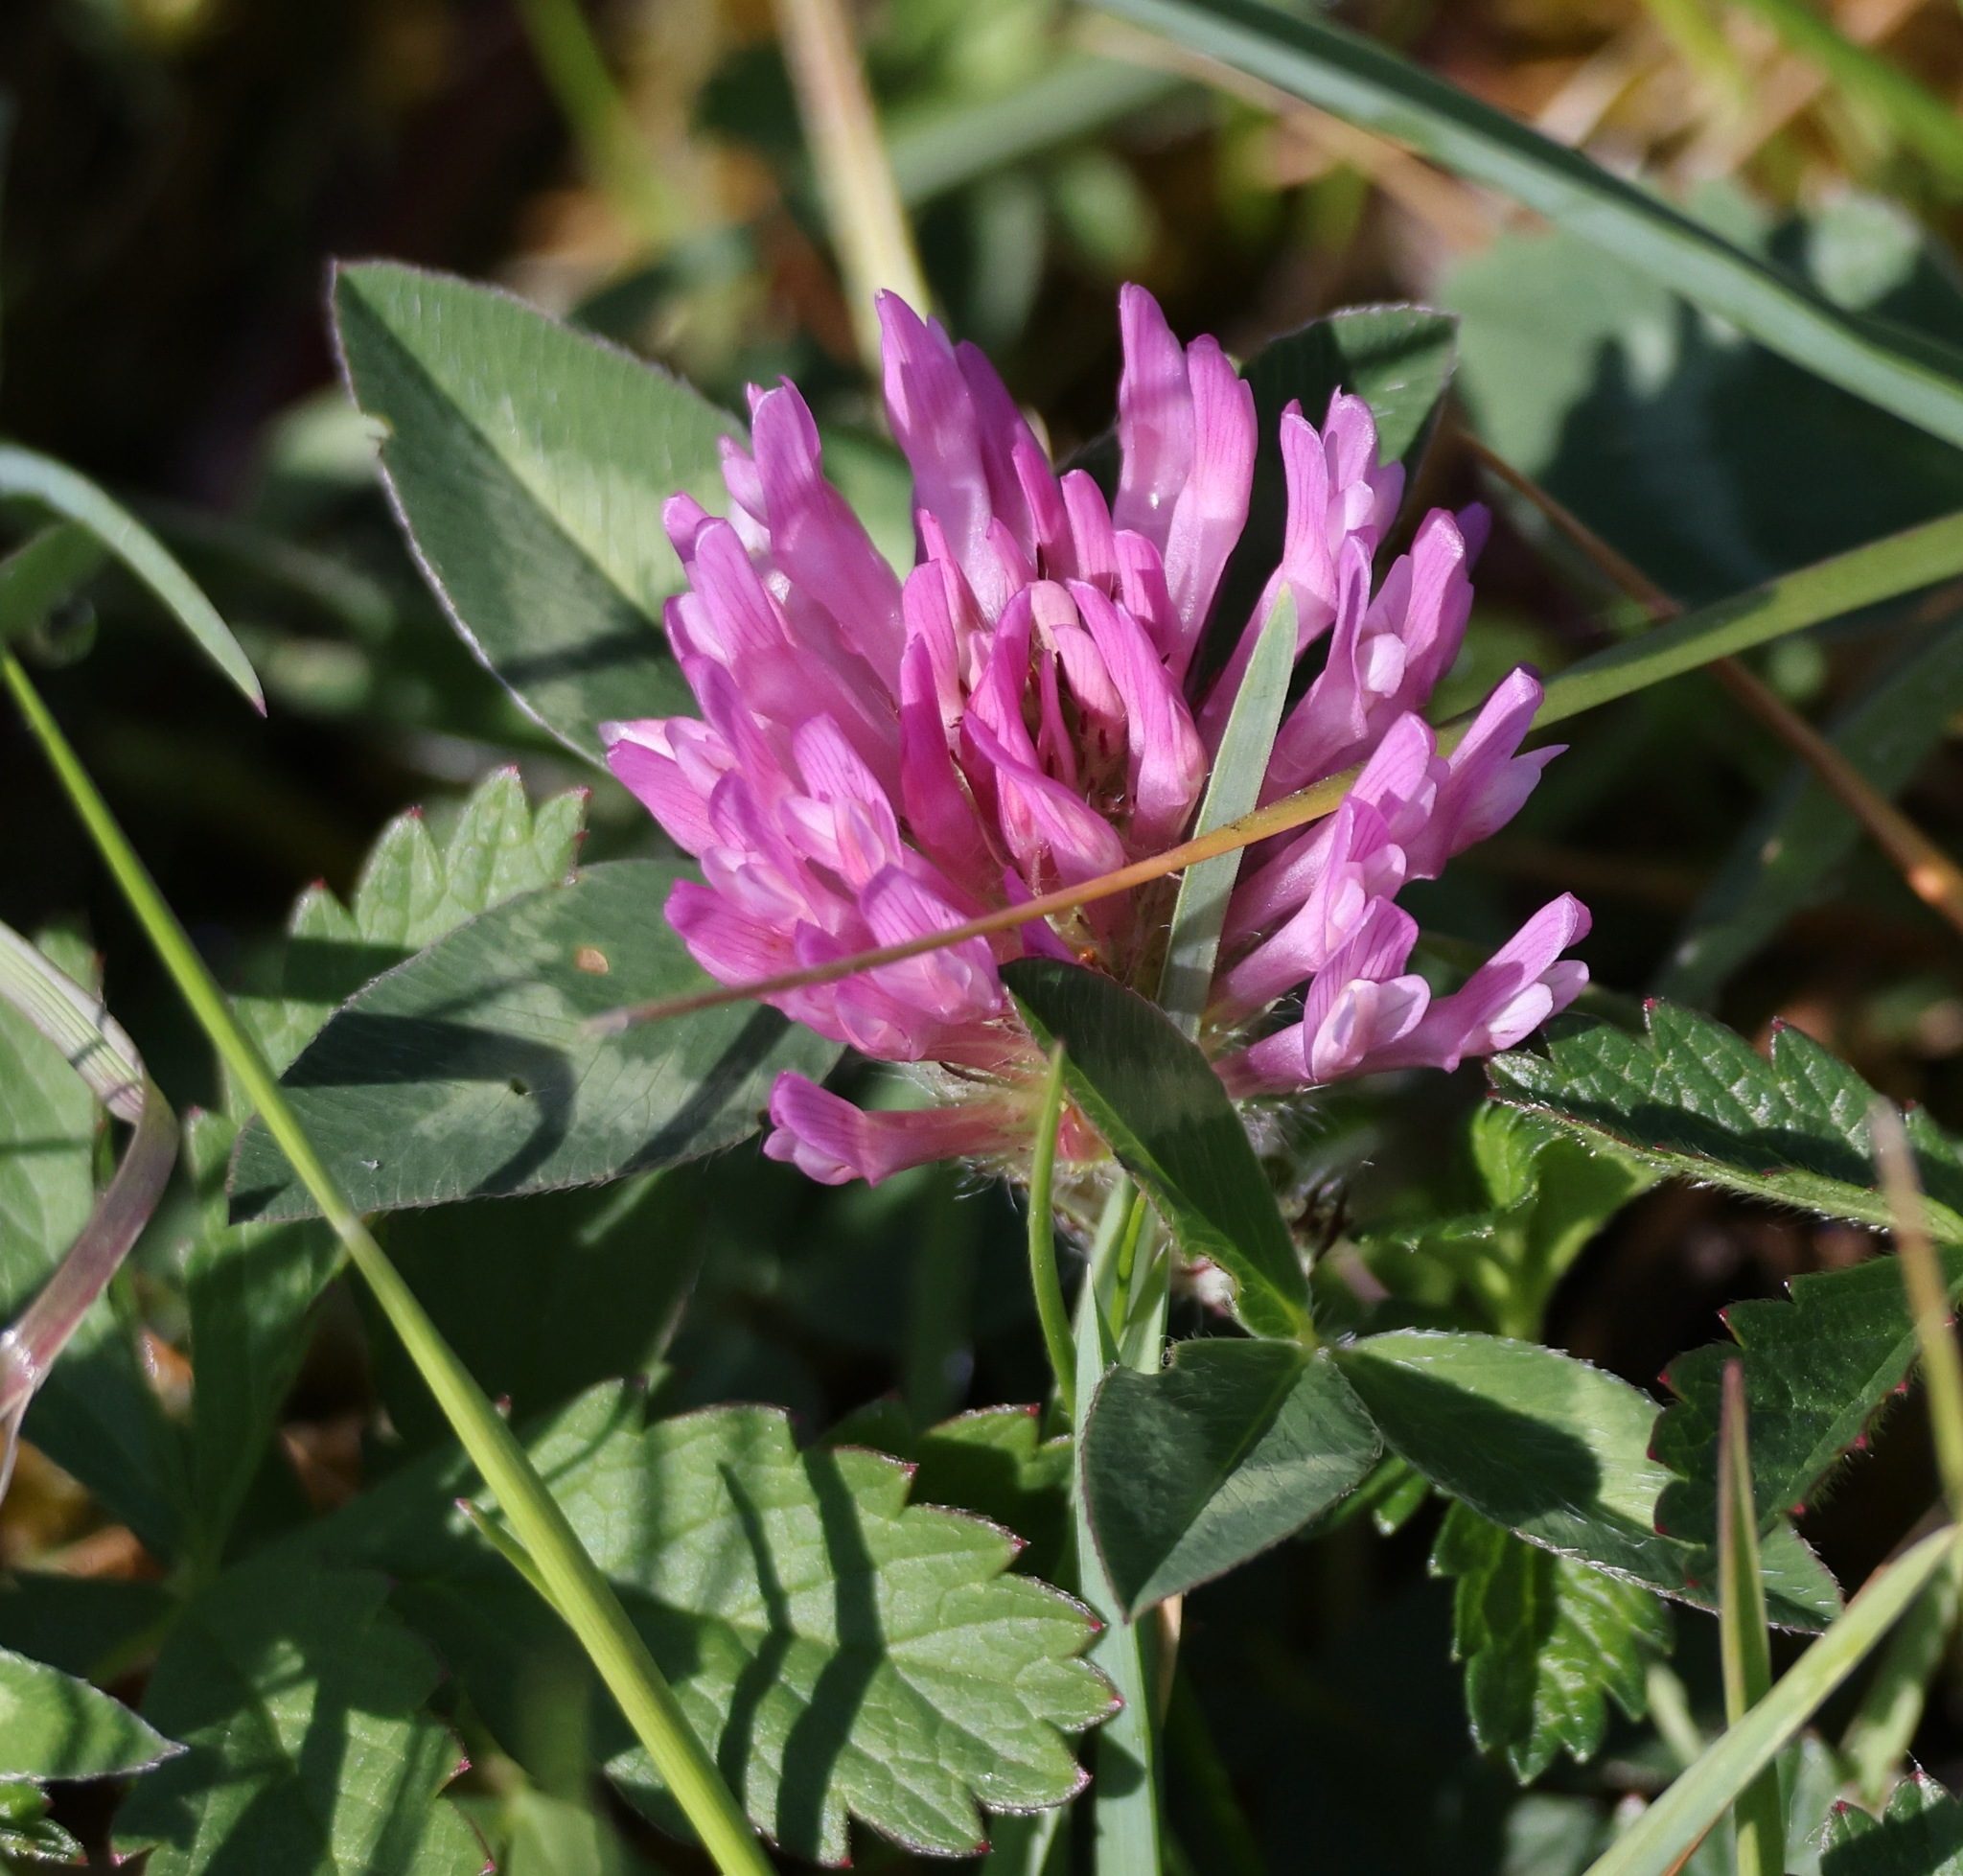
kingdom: Plantae
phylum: Tracheophyta
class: Magnoliopsida
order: Fabales
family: Fabaceae
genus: Trifolium
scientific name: Trifolium pratense
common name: Red clover
